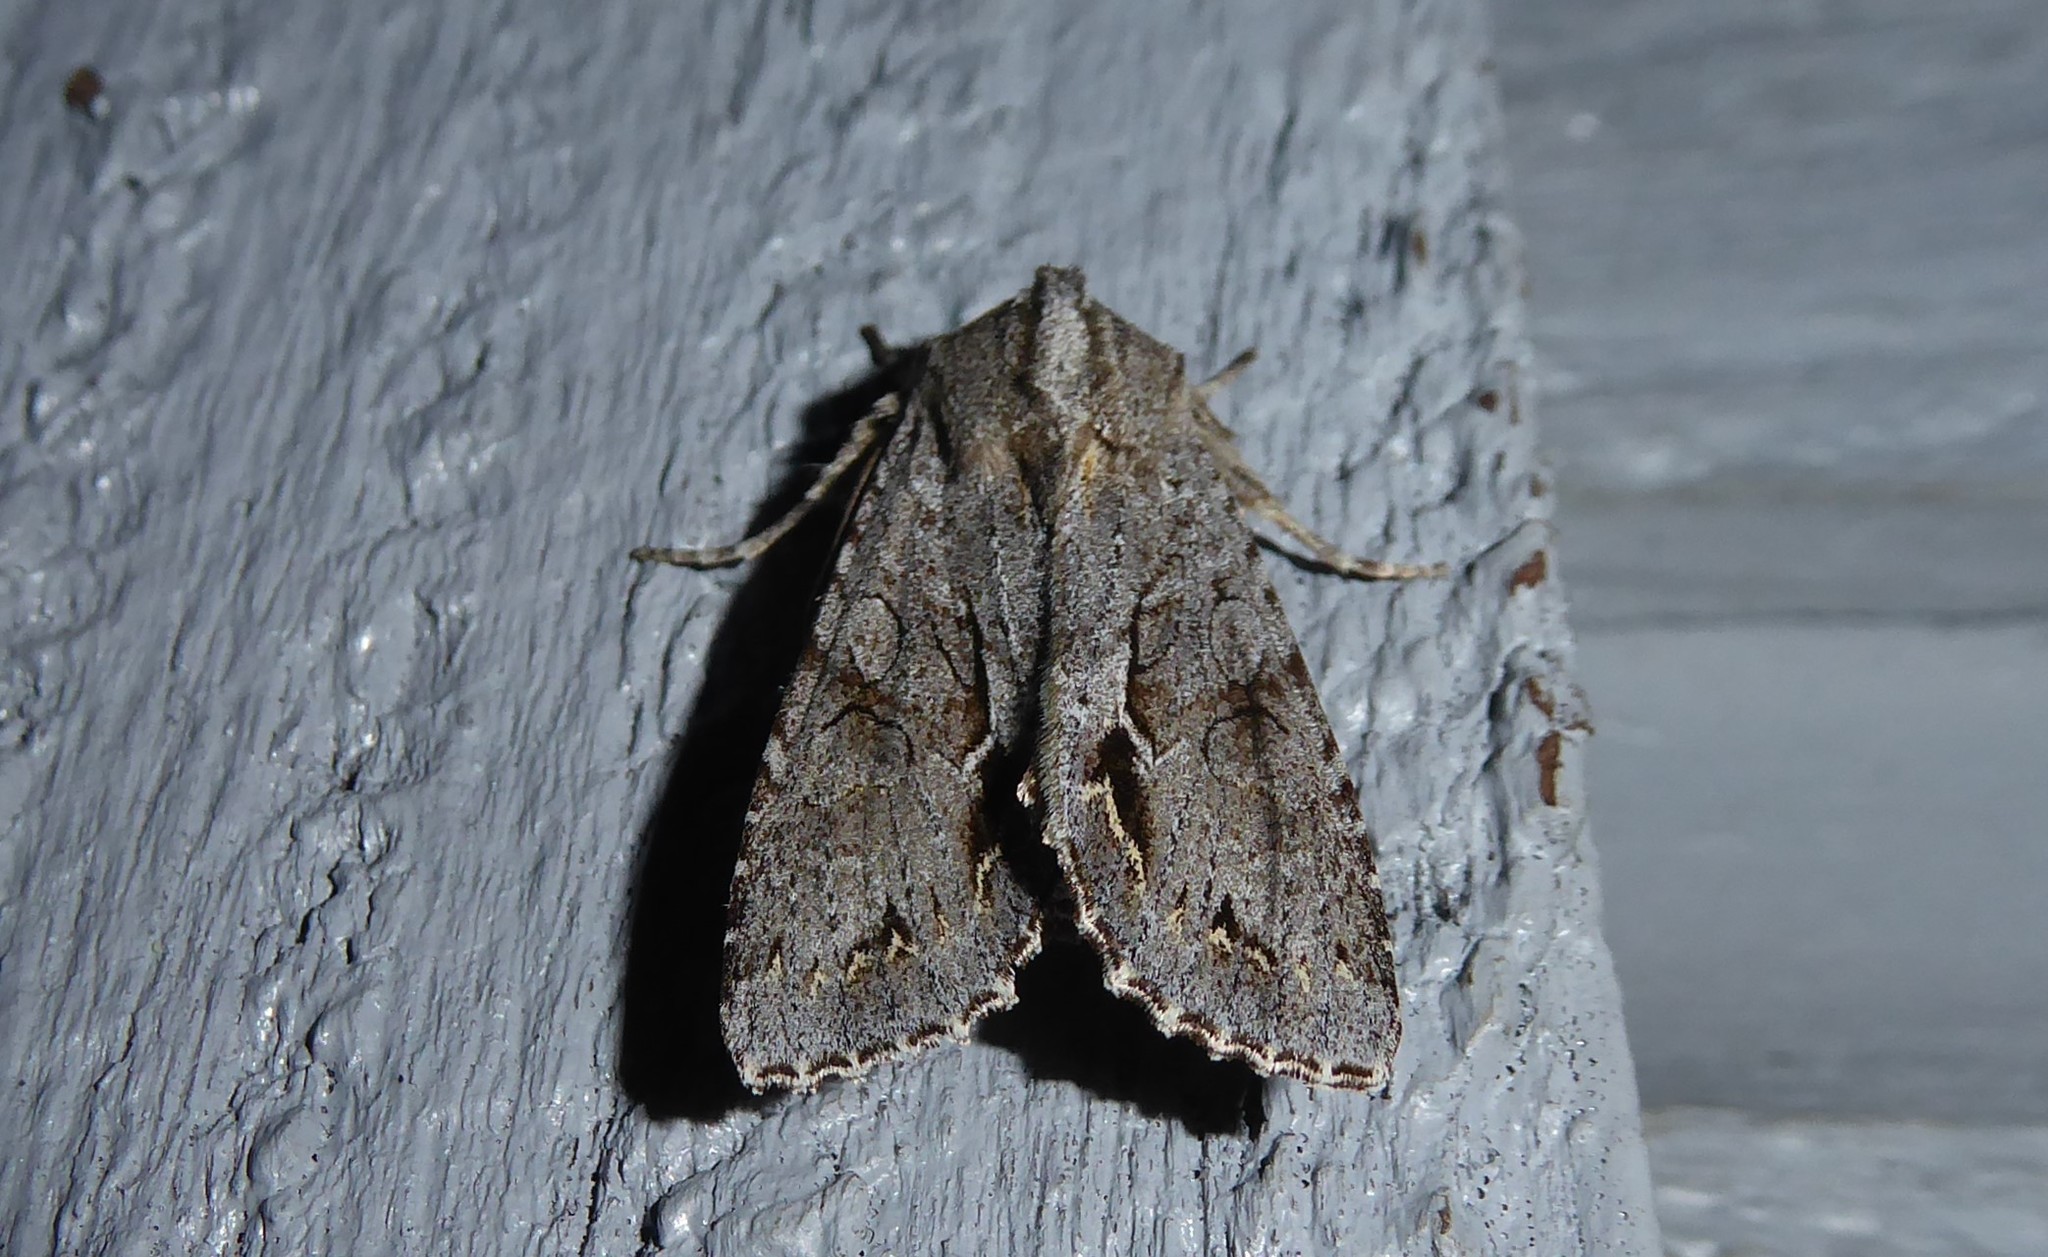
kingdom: Animalia
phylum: Arthropoda
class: Insecta
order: Lepidoptera
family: Noctuidae
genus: Ichneutica
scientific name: Ichneutica
